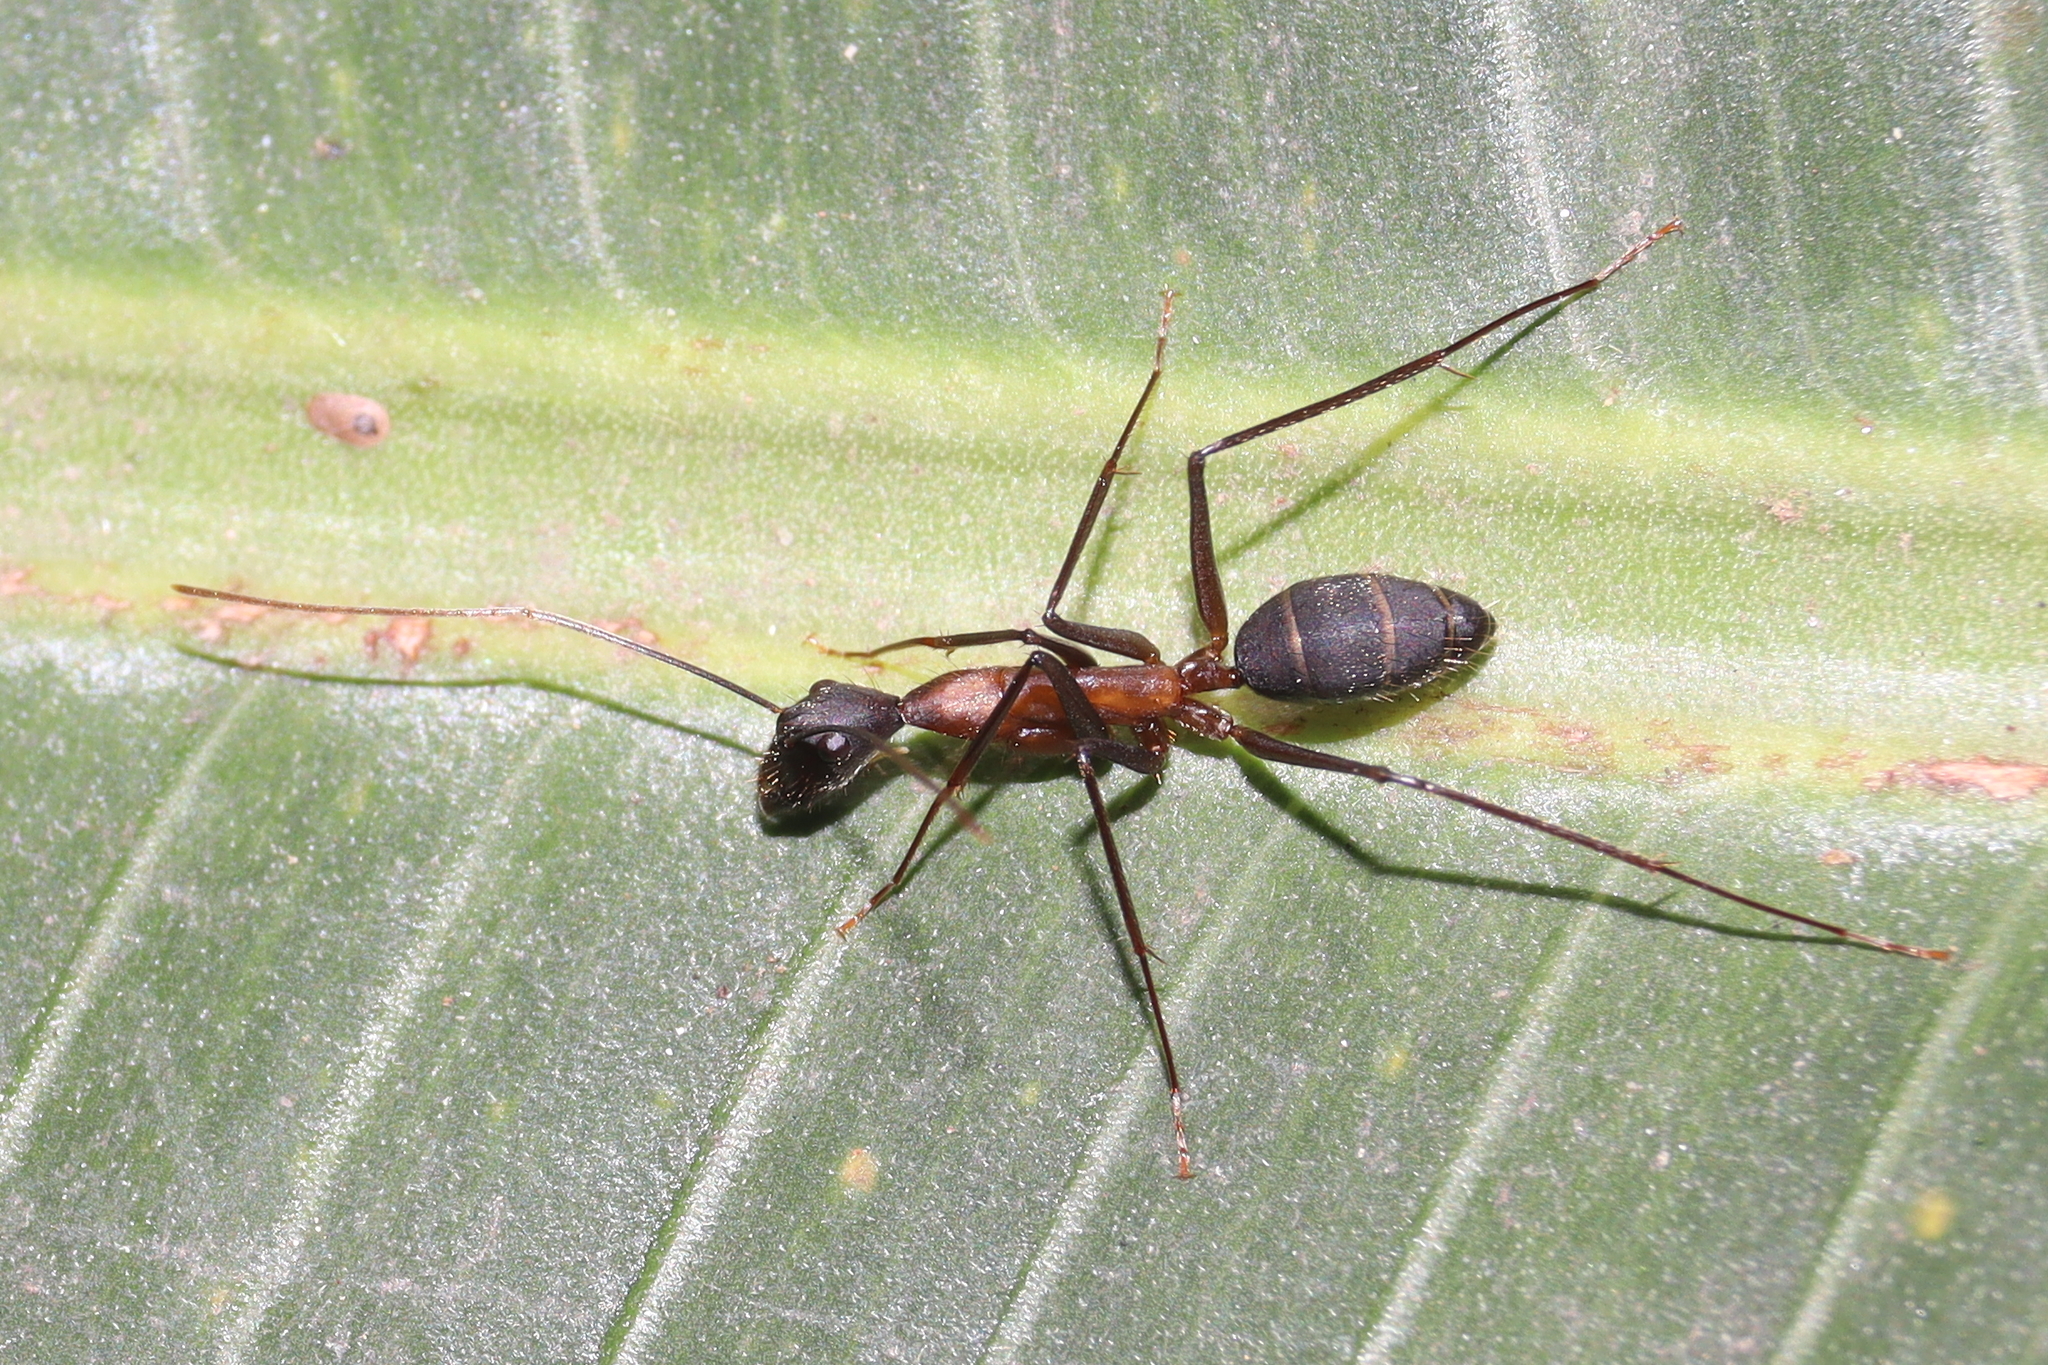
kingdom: Animalia
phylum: Arthropoda
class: Insecta
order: Hymenoptera
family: Formicidae
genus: Camponotus
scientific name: Camponotus lespesii
